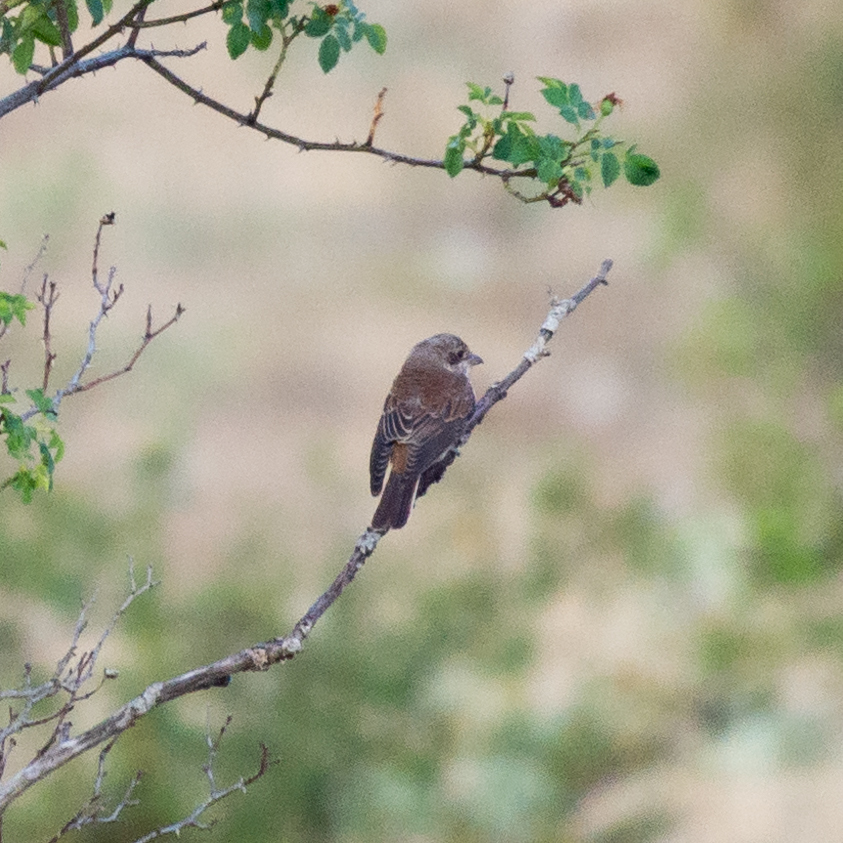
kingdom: Animalia
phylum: Chordata
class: Aves
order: Passeriformes
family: Laniidae
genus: Lanius
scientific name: Lanius collurio
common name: Red-backed shrike
